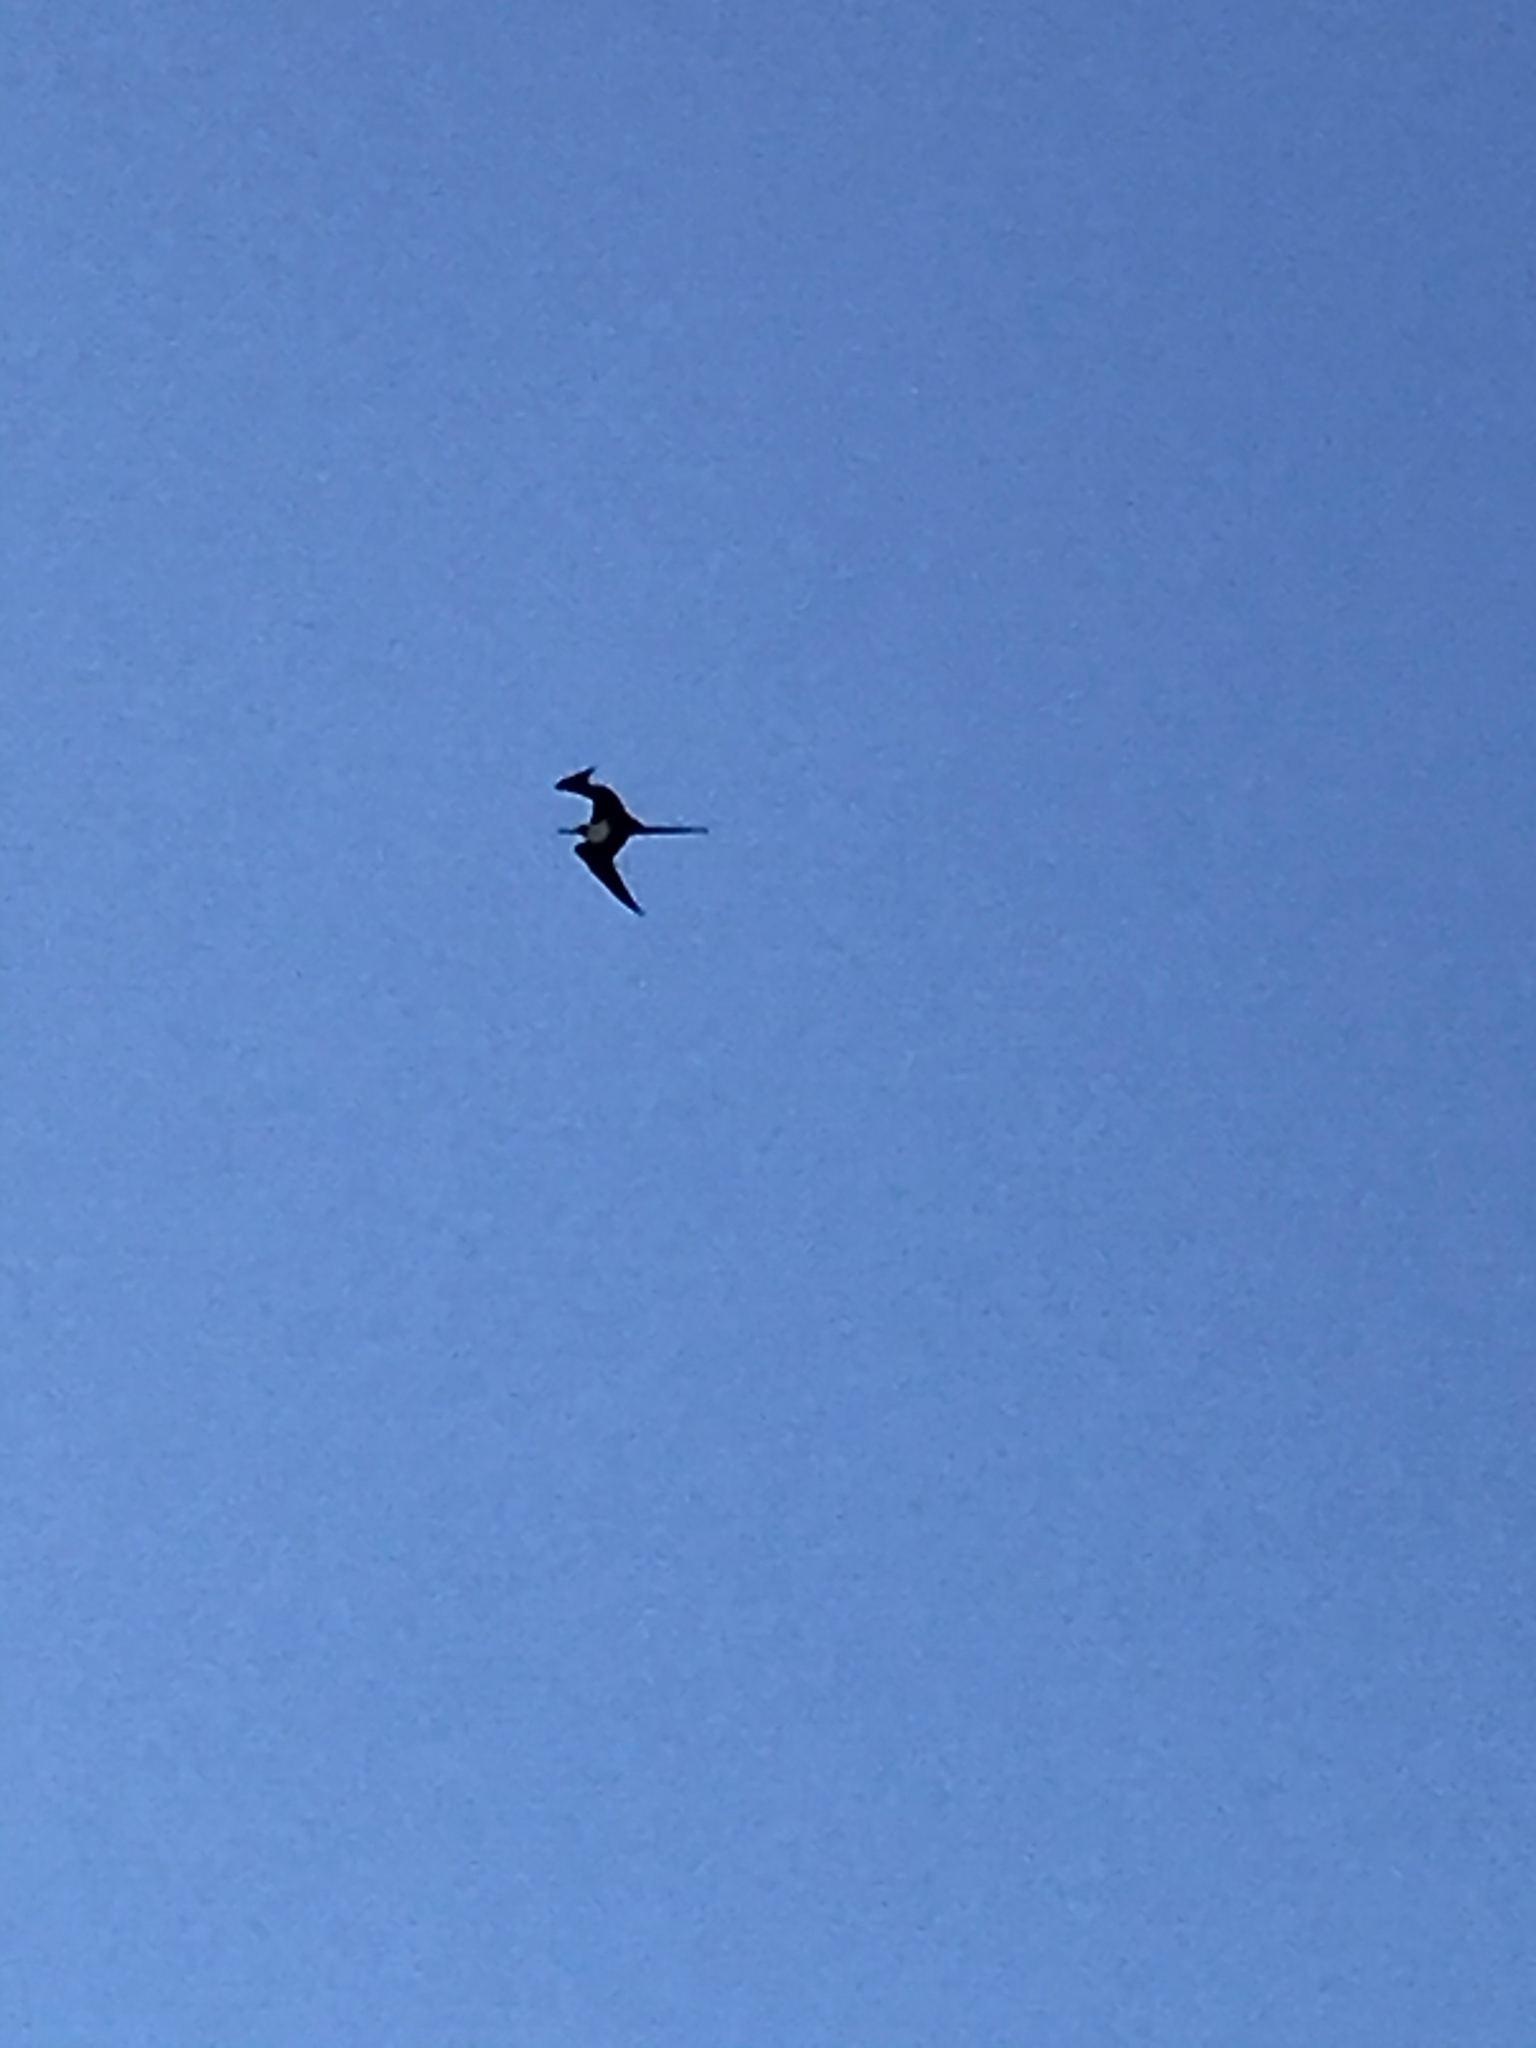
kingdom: Animalia
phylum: Chordata
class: Aves
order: Suliformes
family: Fregatidae
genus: Fregata
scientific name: Fregata magnificens
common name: Magnificent frigatebird
